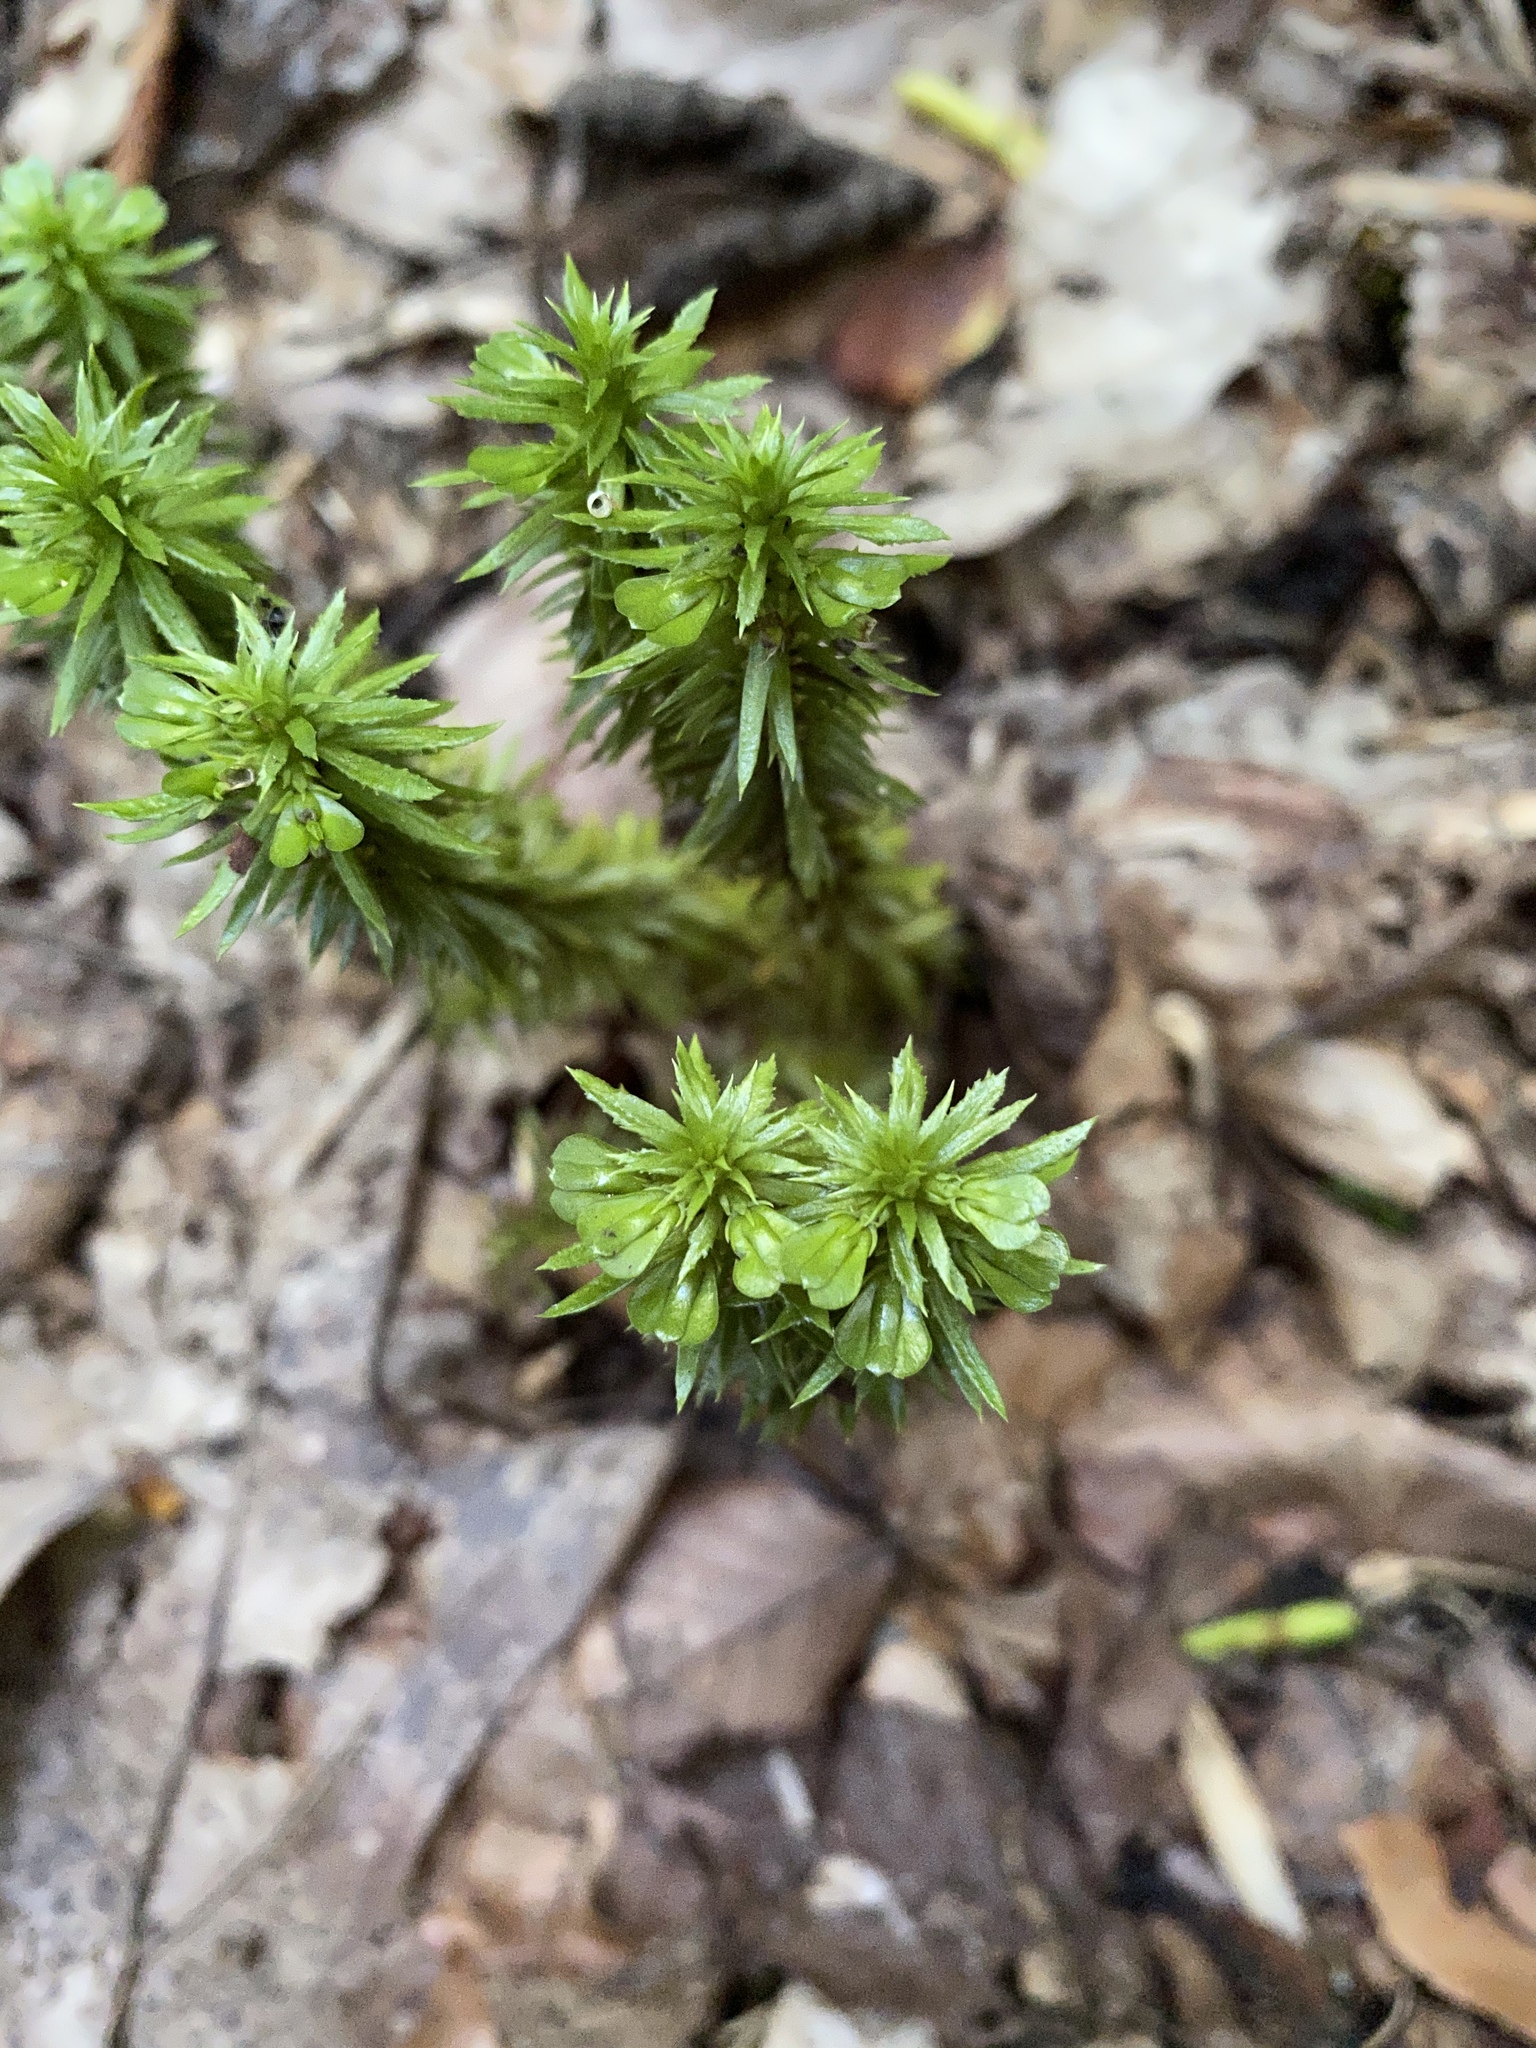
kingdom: Plantae
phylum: Tracheophyta
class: Lycopodiopsida
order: Lycopodiales
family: Lycopodiaceae
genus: Huperzia
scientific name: Huperzia lucidula
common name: Shining clubmoss
